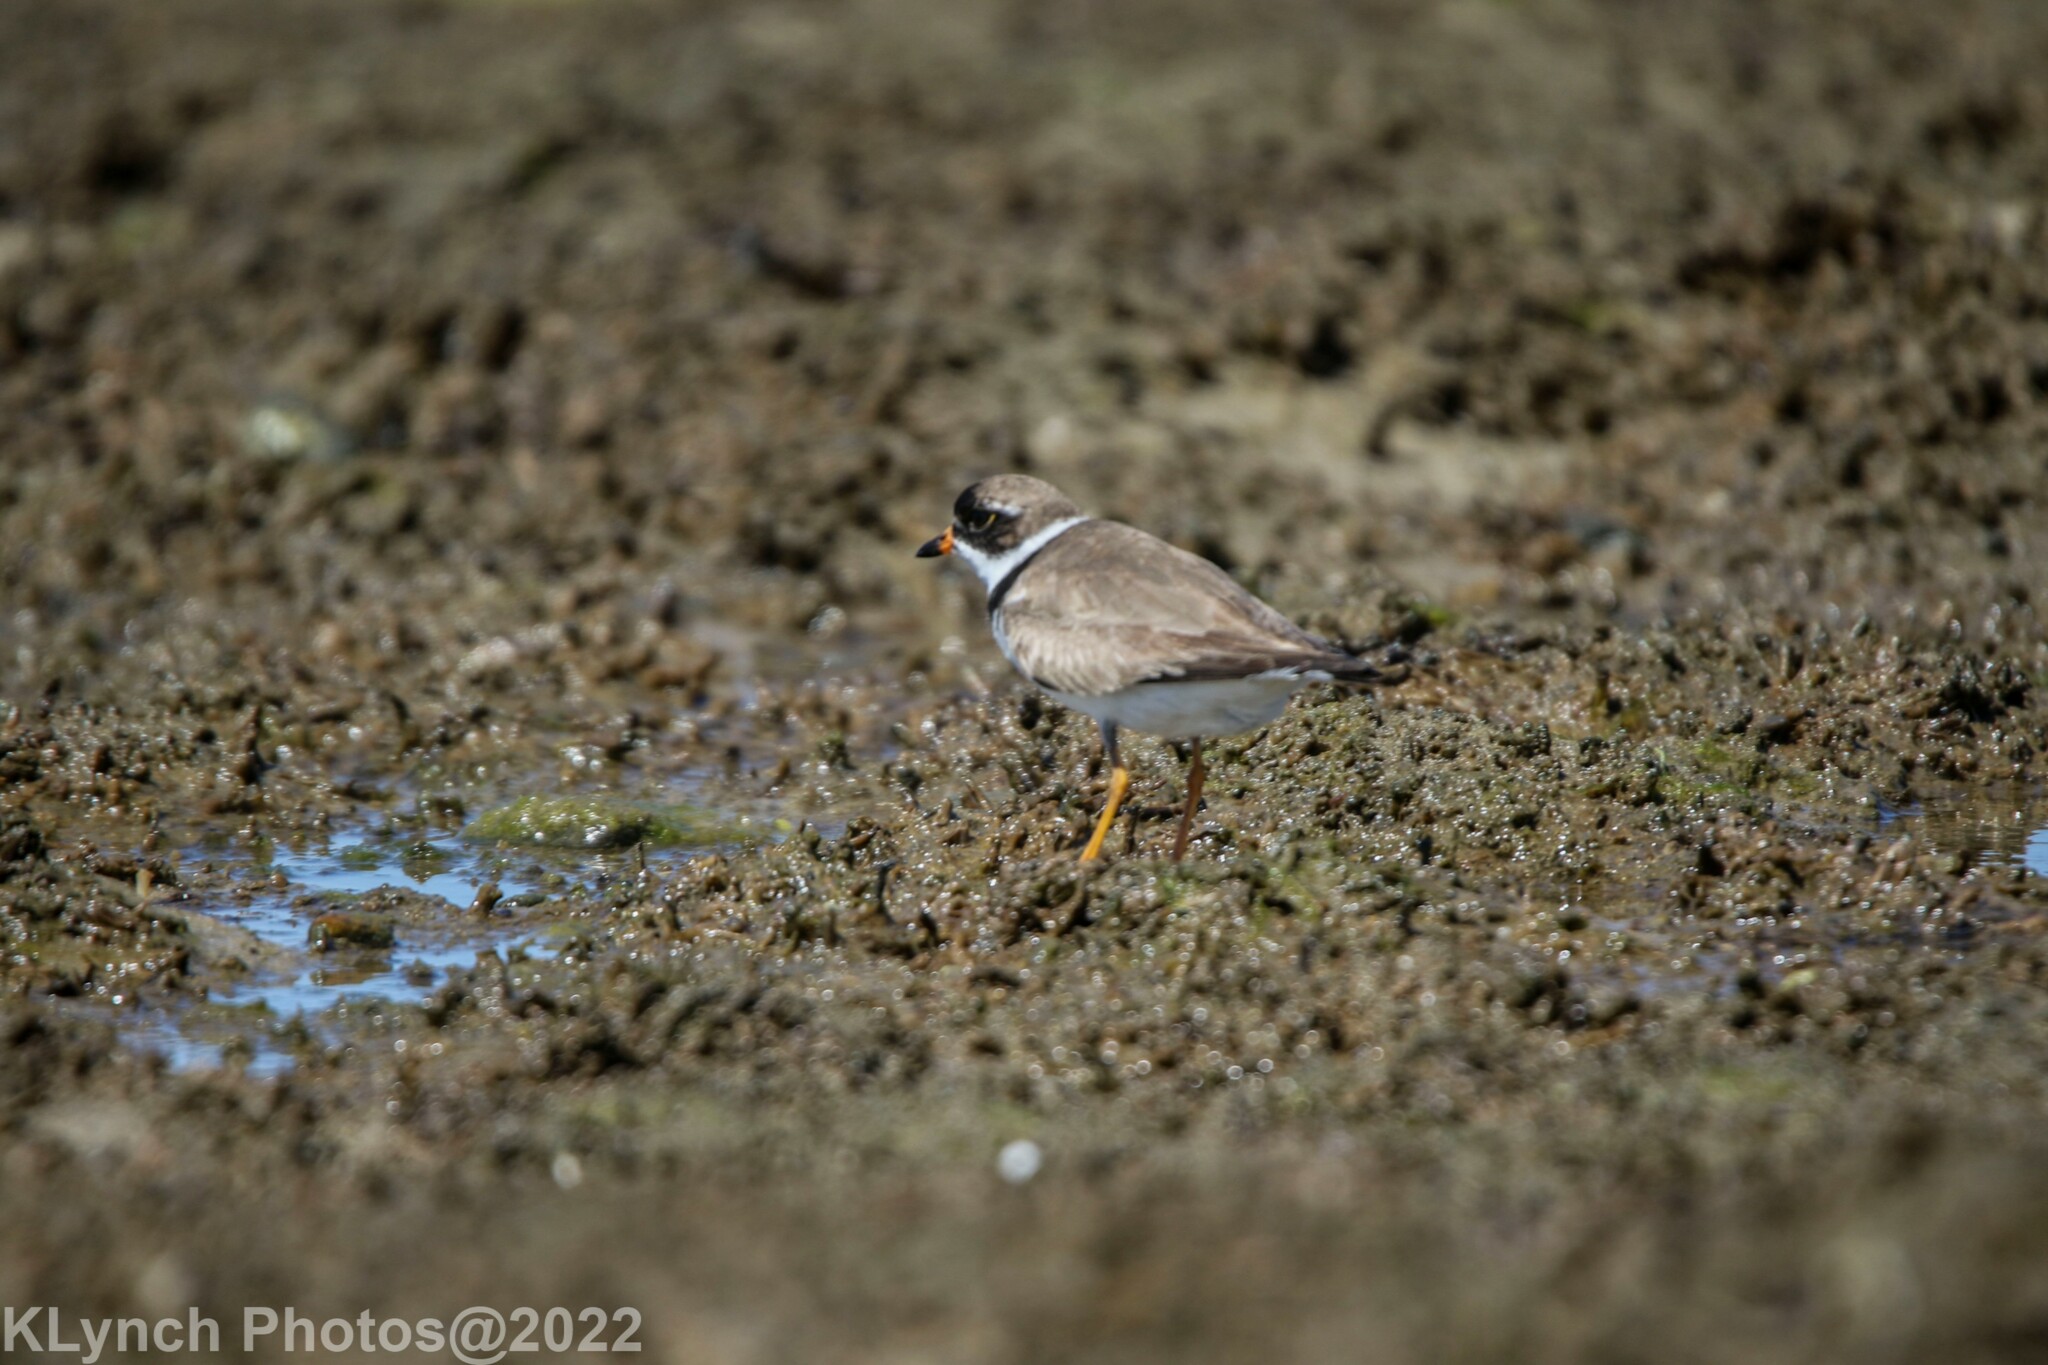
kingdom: Animalia
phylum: Chordata
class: Aves
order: Charadriiformes
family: Charadriidae
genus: Charadrius
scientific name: Charadrius semipalmatus
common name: Semipalmated plover
